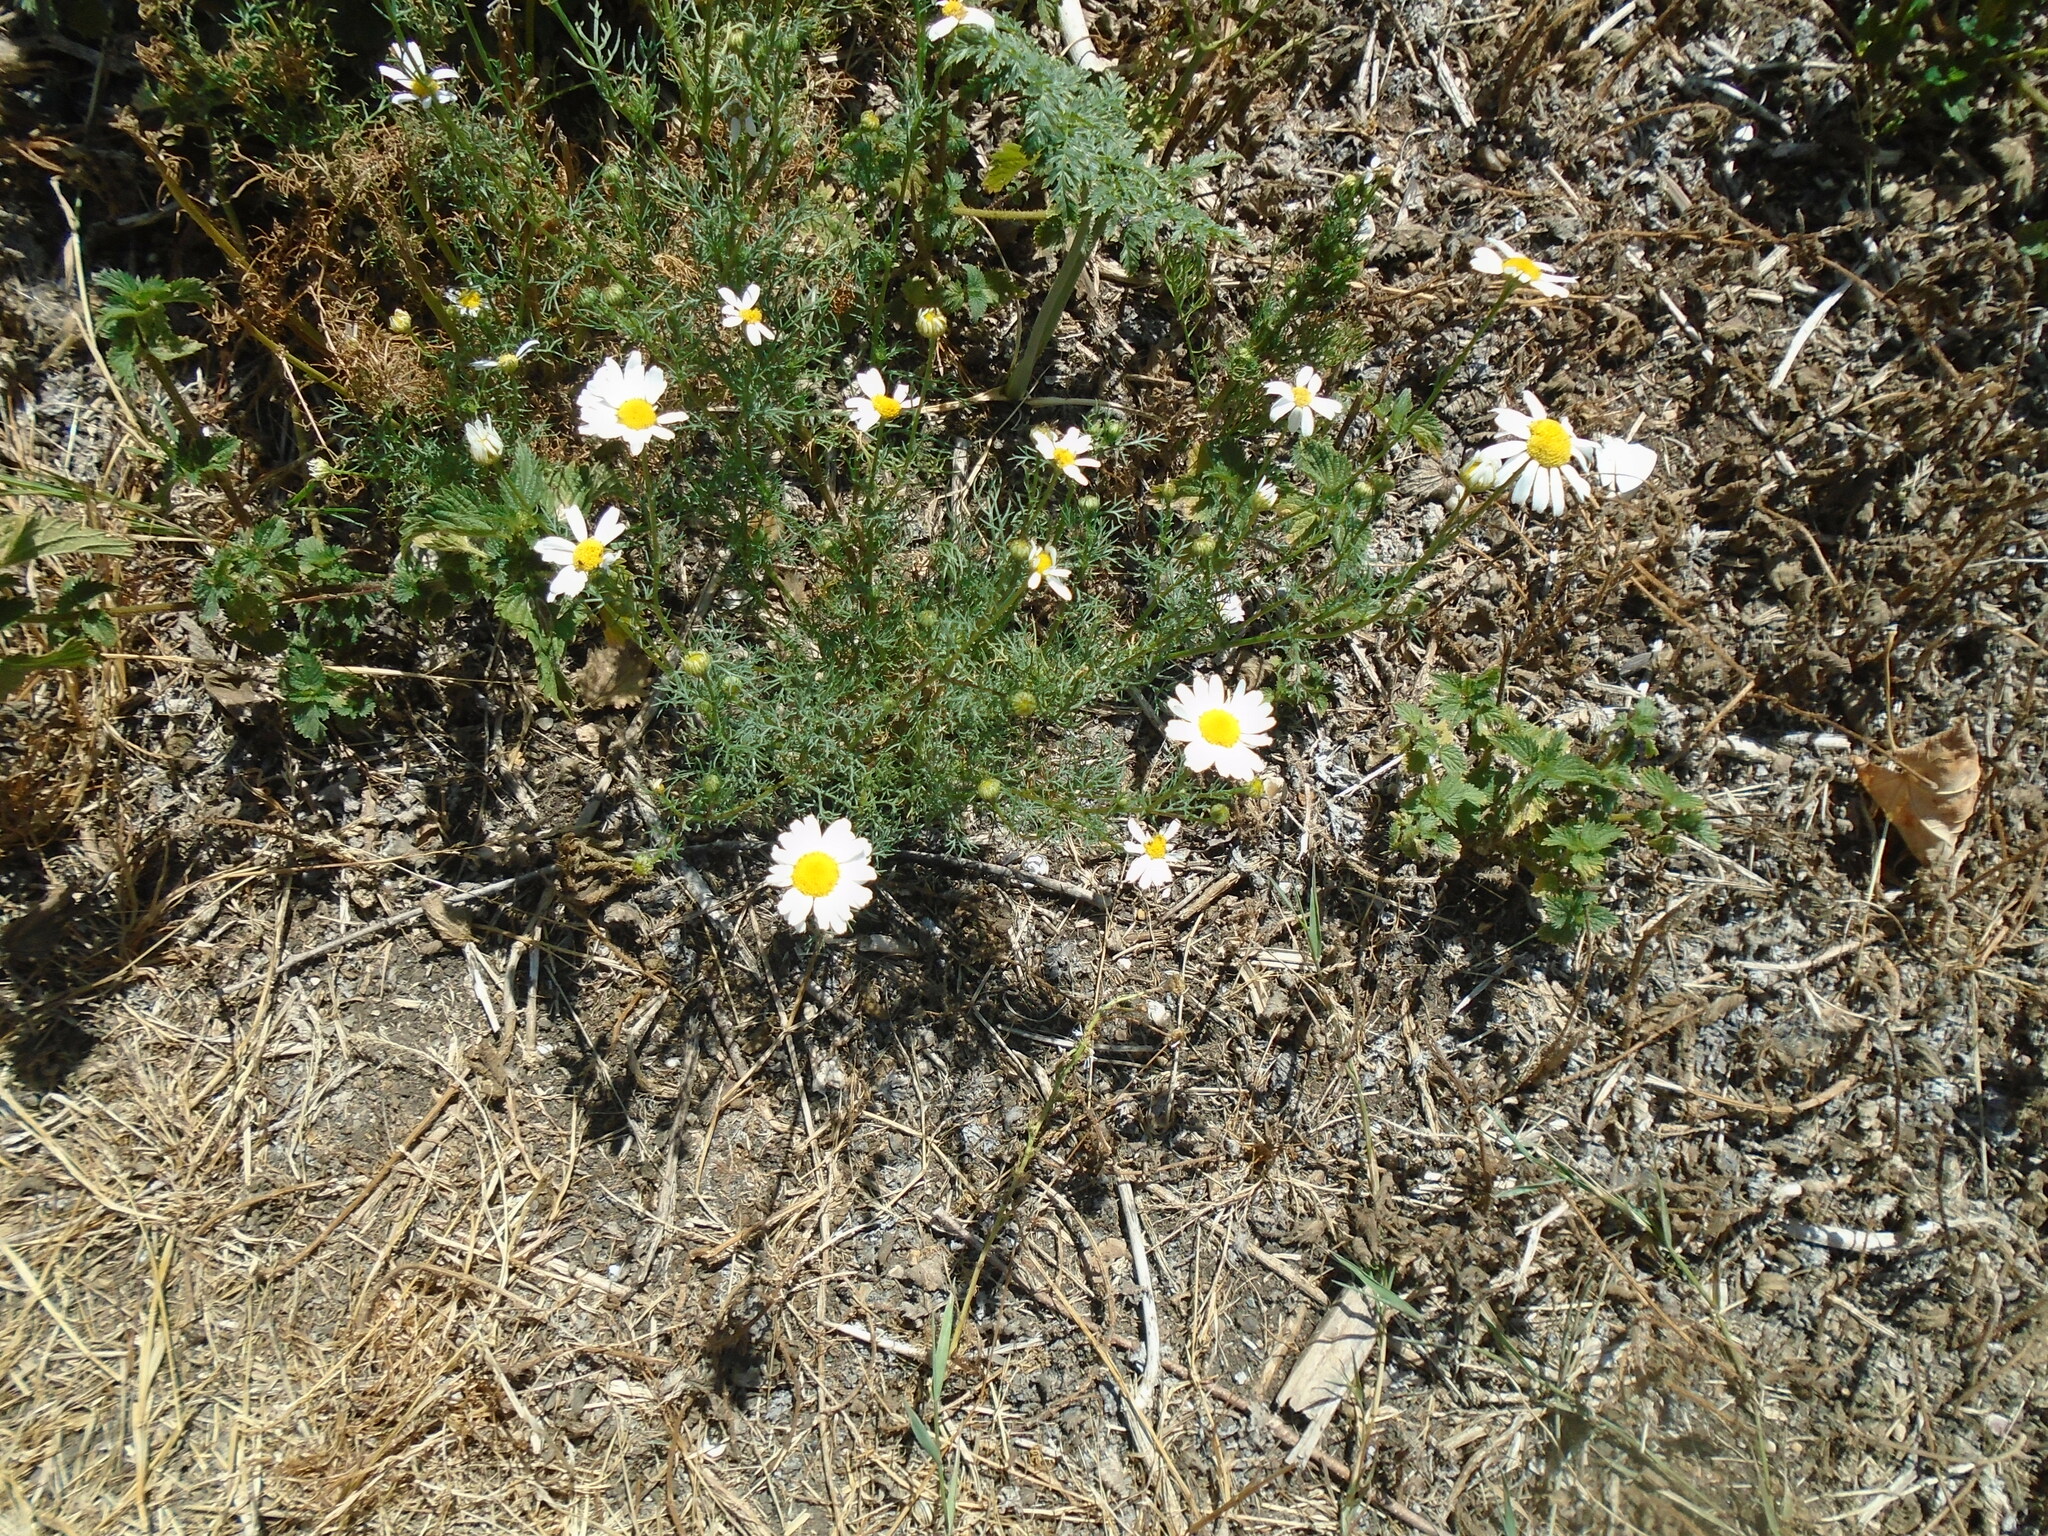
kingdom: Plantae
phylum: Tracheophyta
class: Magnoliopsida
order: Asterales
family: Asteraceae
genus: Chamaemelum
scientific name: Chamaemelum nobile
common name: Roman chamomile
